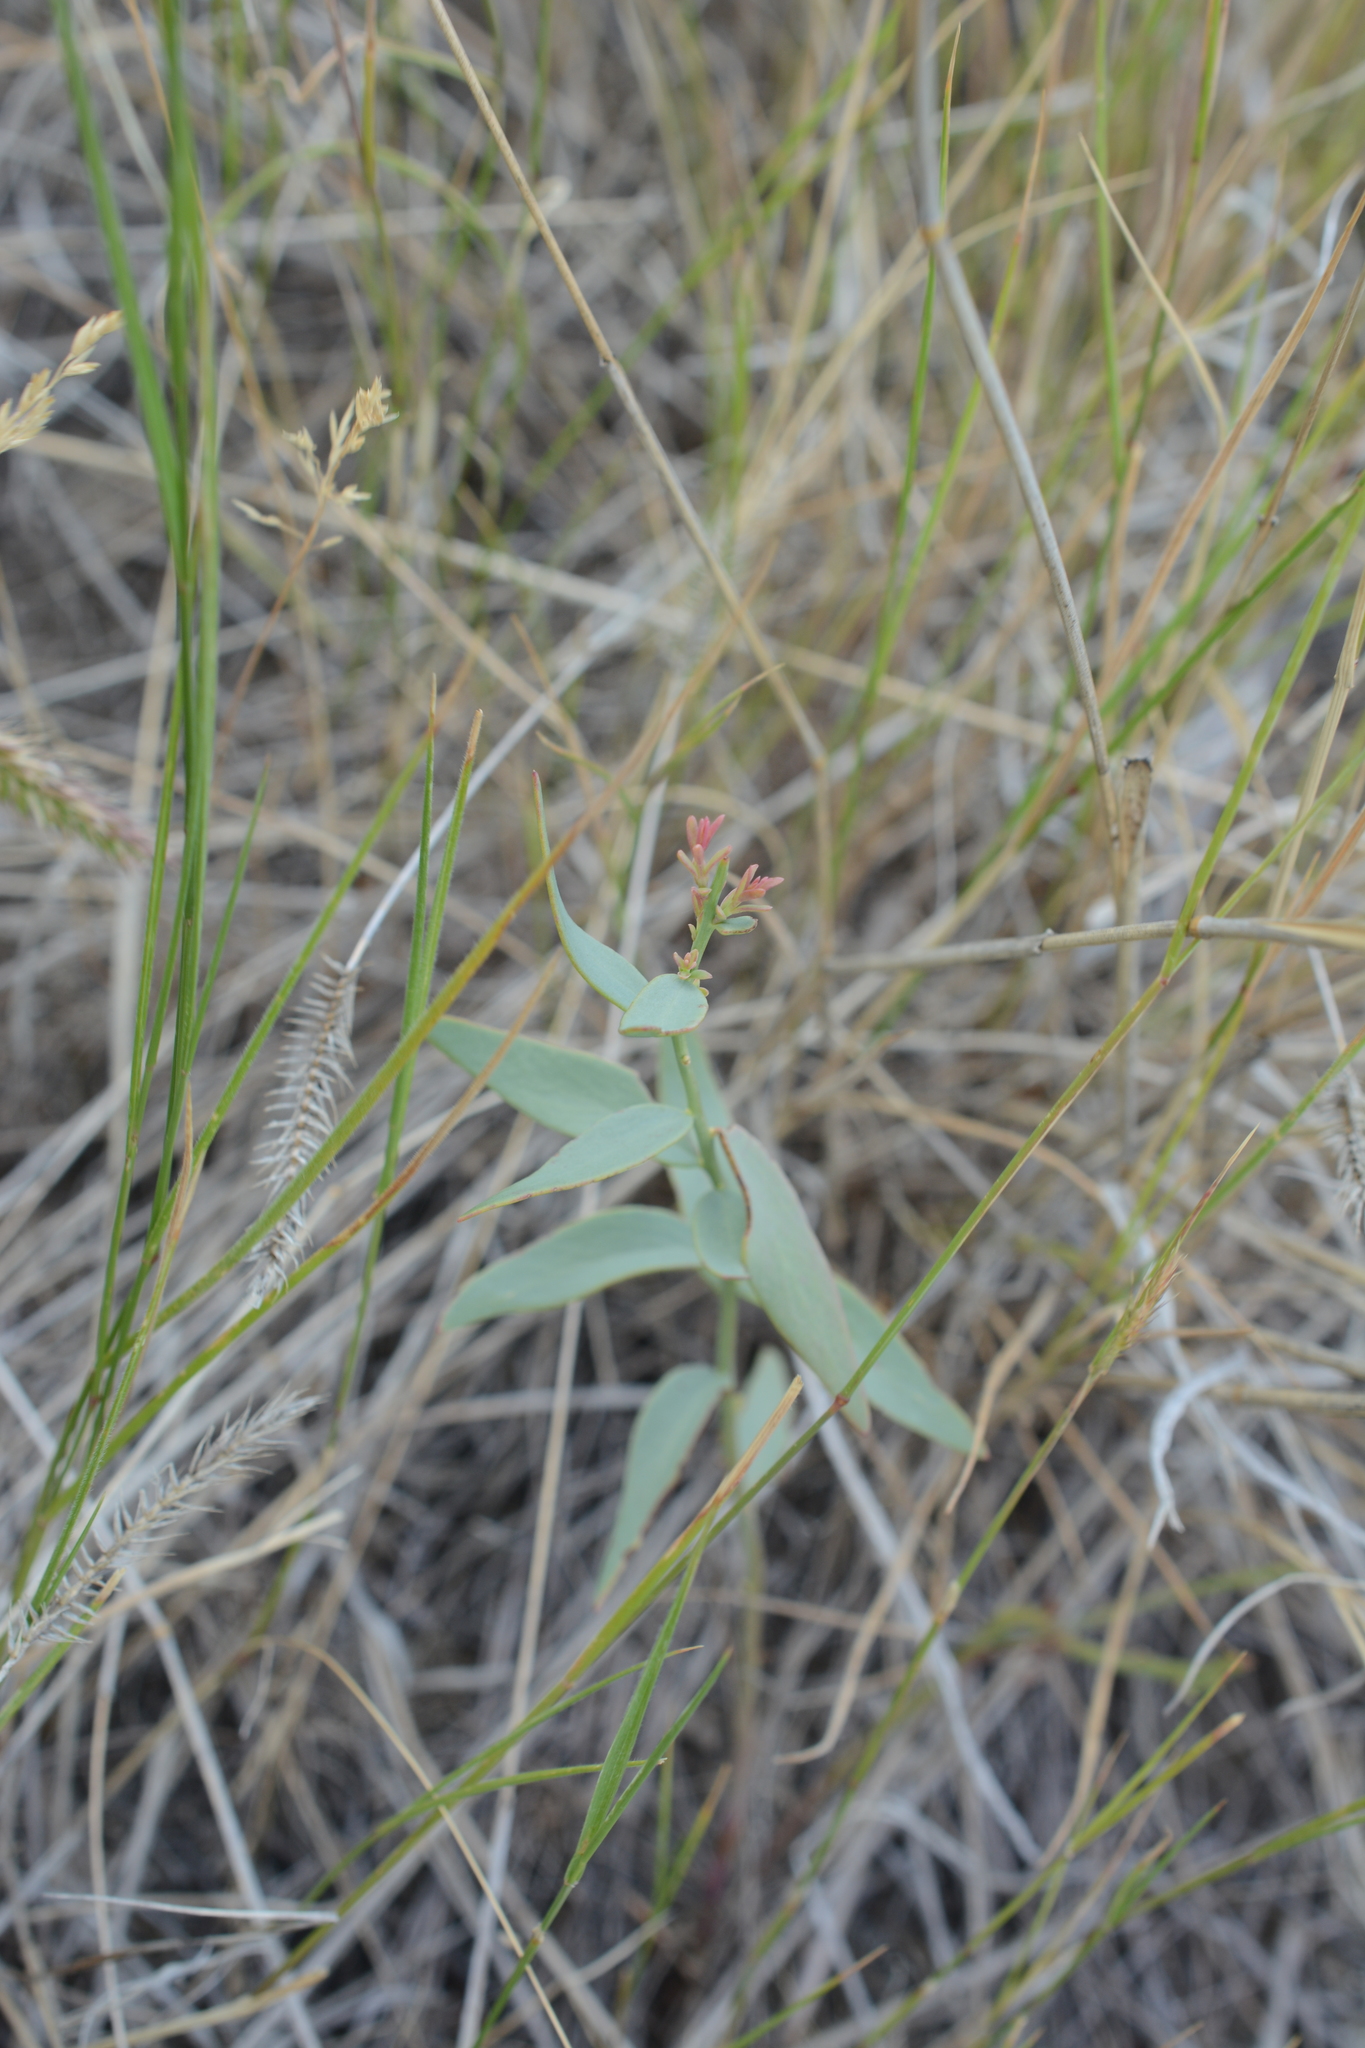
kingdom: Plantae
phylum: Tracheophyta
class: Magnoliopsida
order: Santalales
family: Comandraceae
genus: Comandra
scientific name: Comandra umbellata
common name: Bastard toadflax
